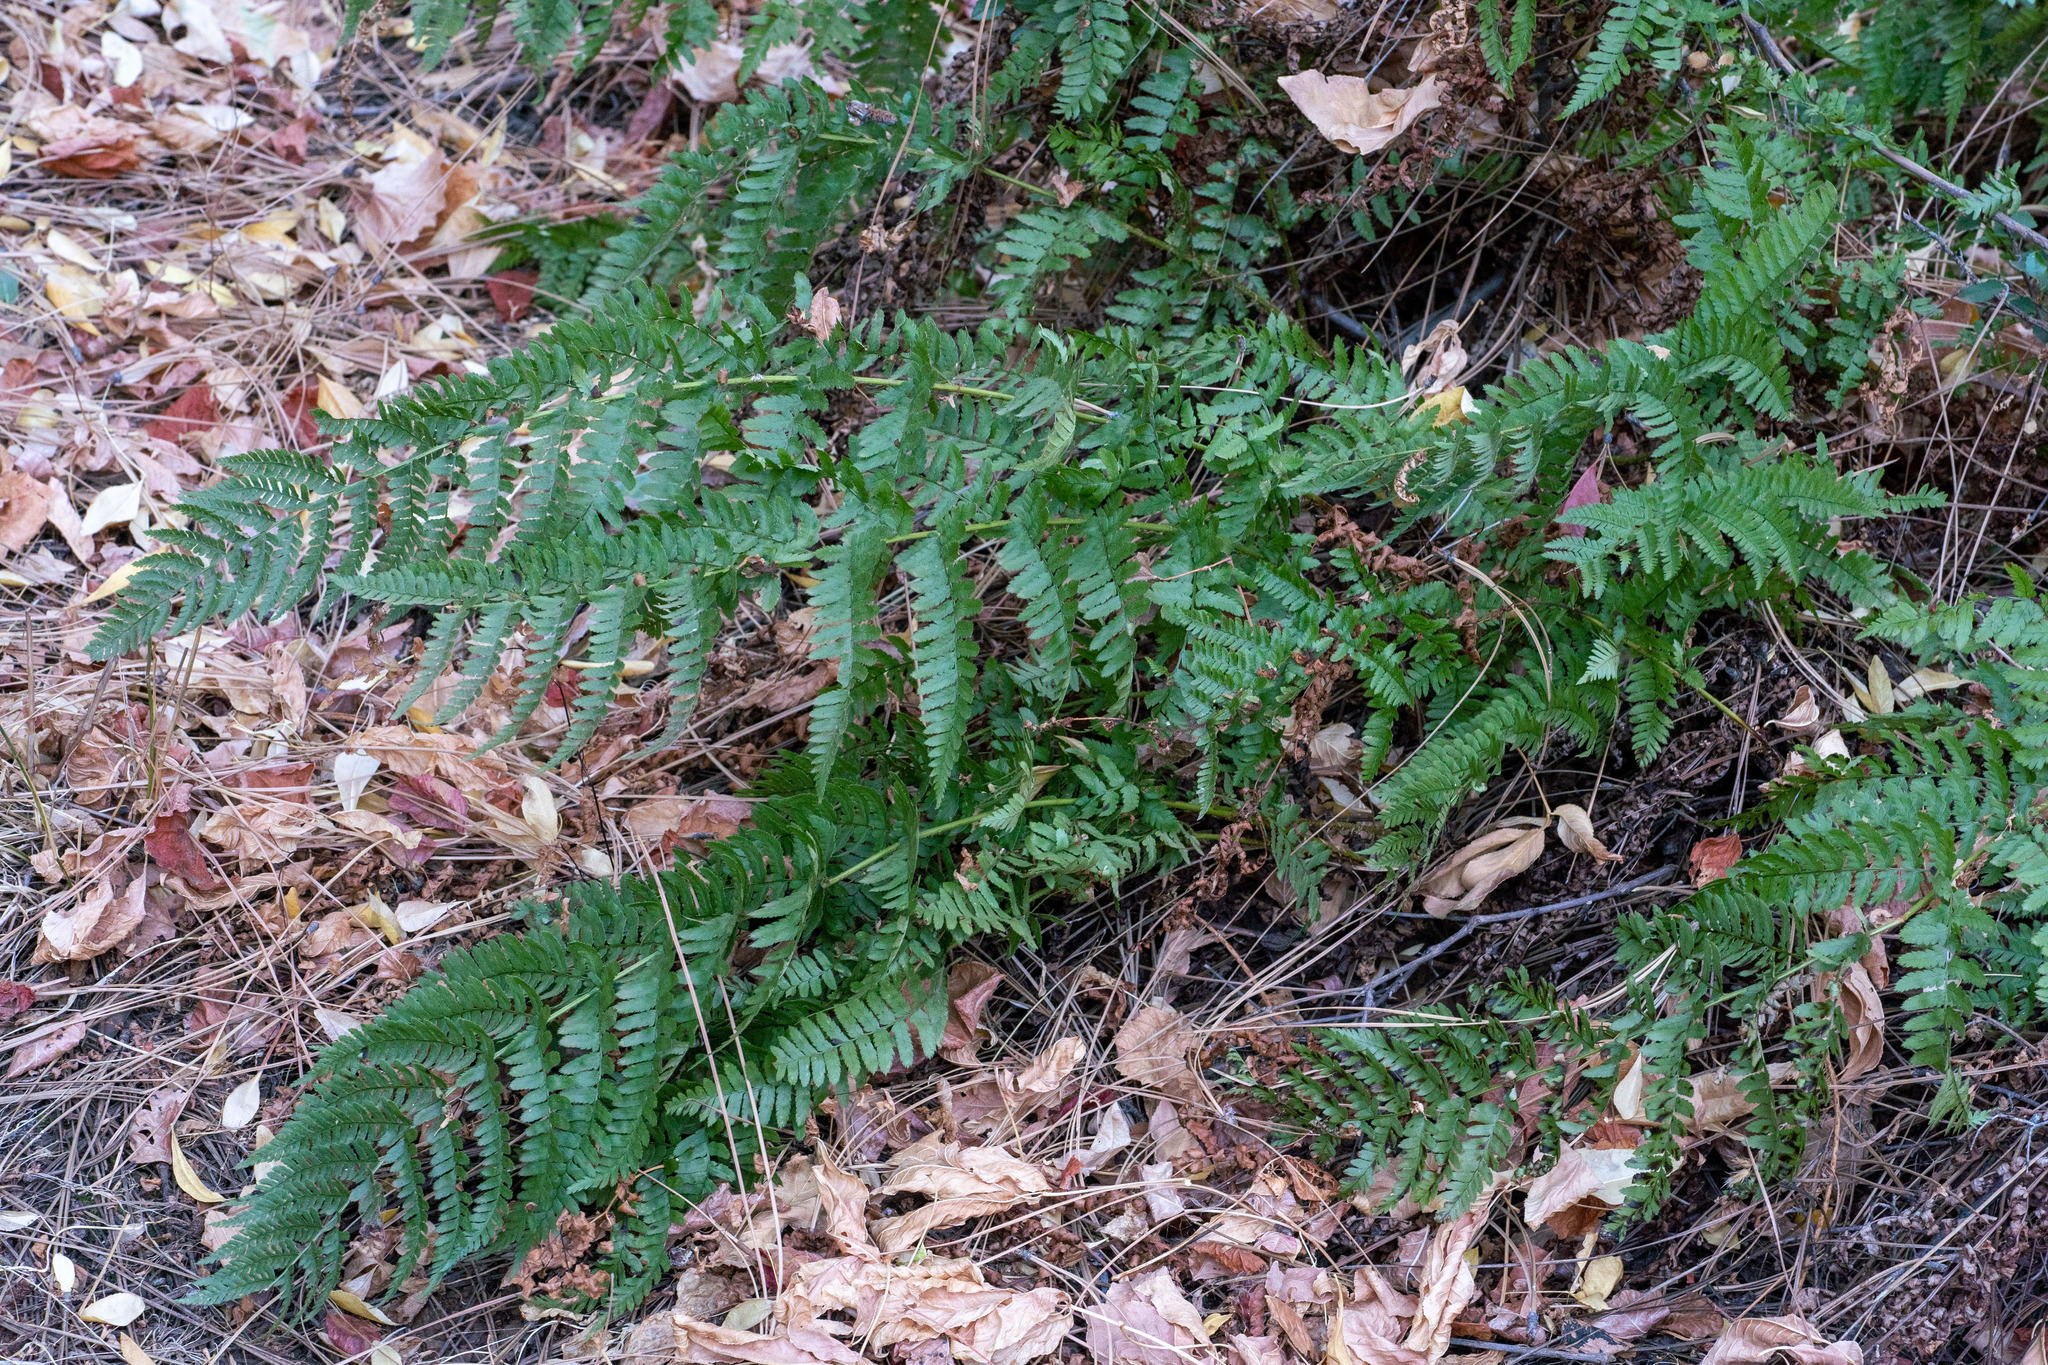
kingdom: Plantae
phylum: Tracheophyta
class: Polypodiopsida
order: Polypodiales
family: Dryopteridaceae
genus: Dryopteris
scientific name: Dryopteris arguta
